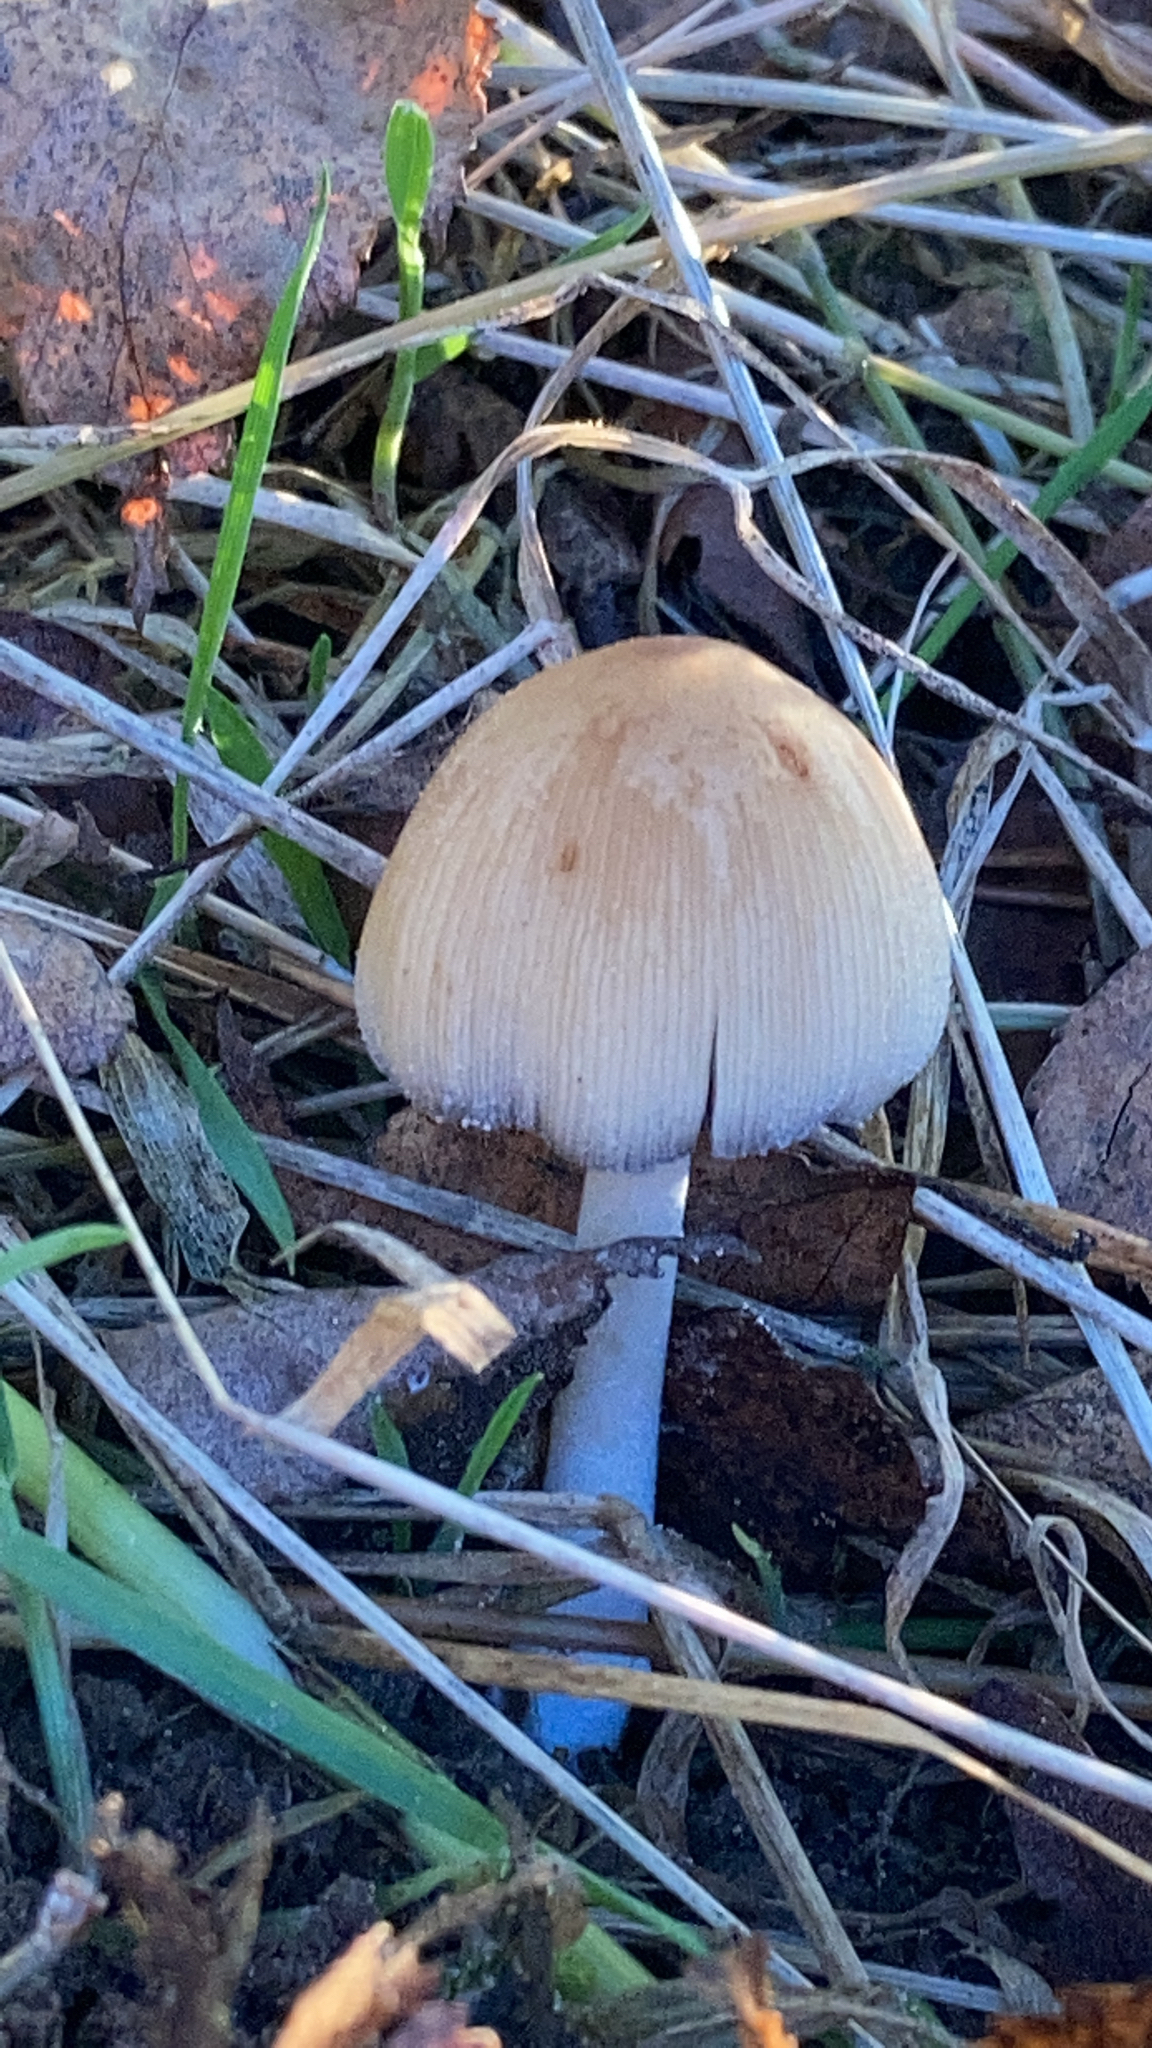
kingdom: Fungi
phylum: Basidiomycota
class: Agaricomycetes
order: Agaricales
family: Psathyrellaceae
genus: Coprinellus
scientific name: Coprinellus micaceus
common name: Glistening ink-cap
